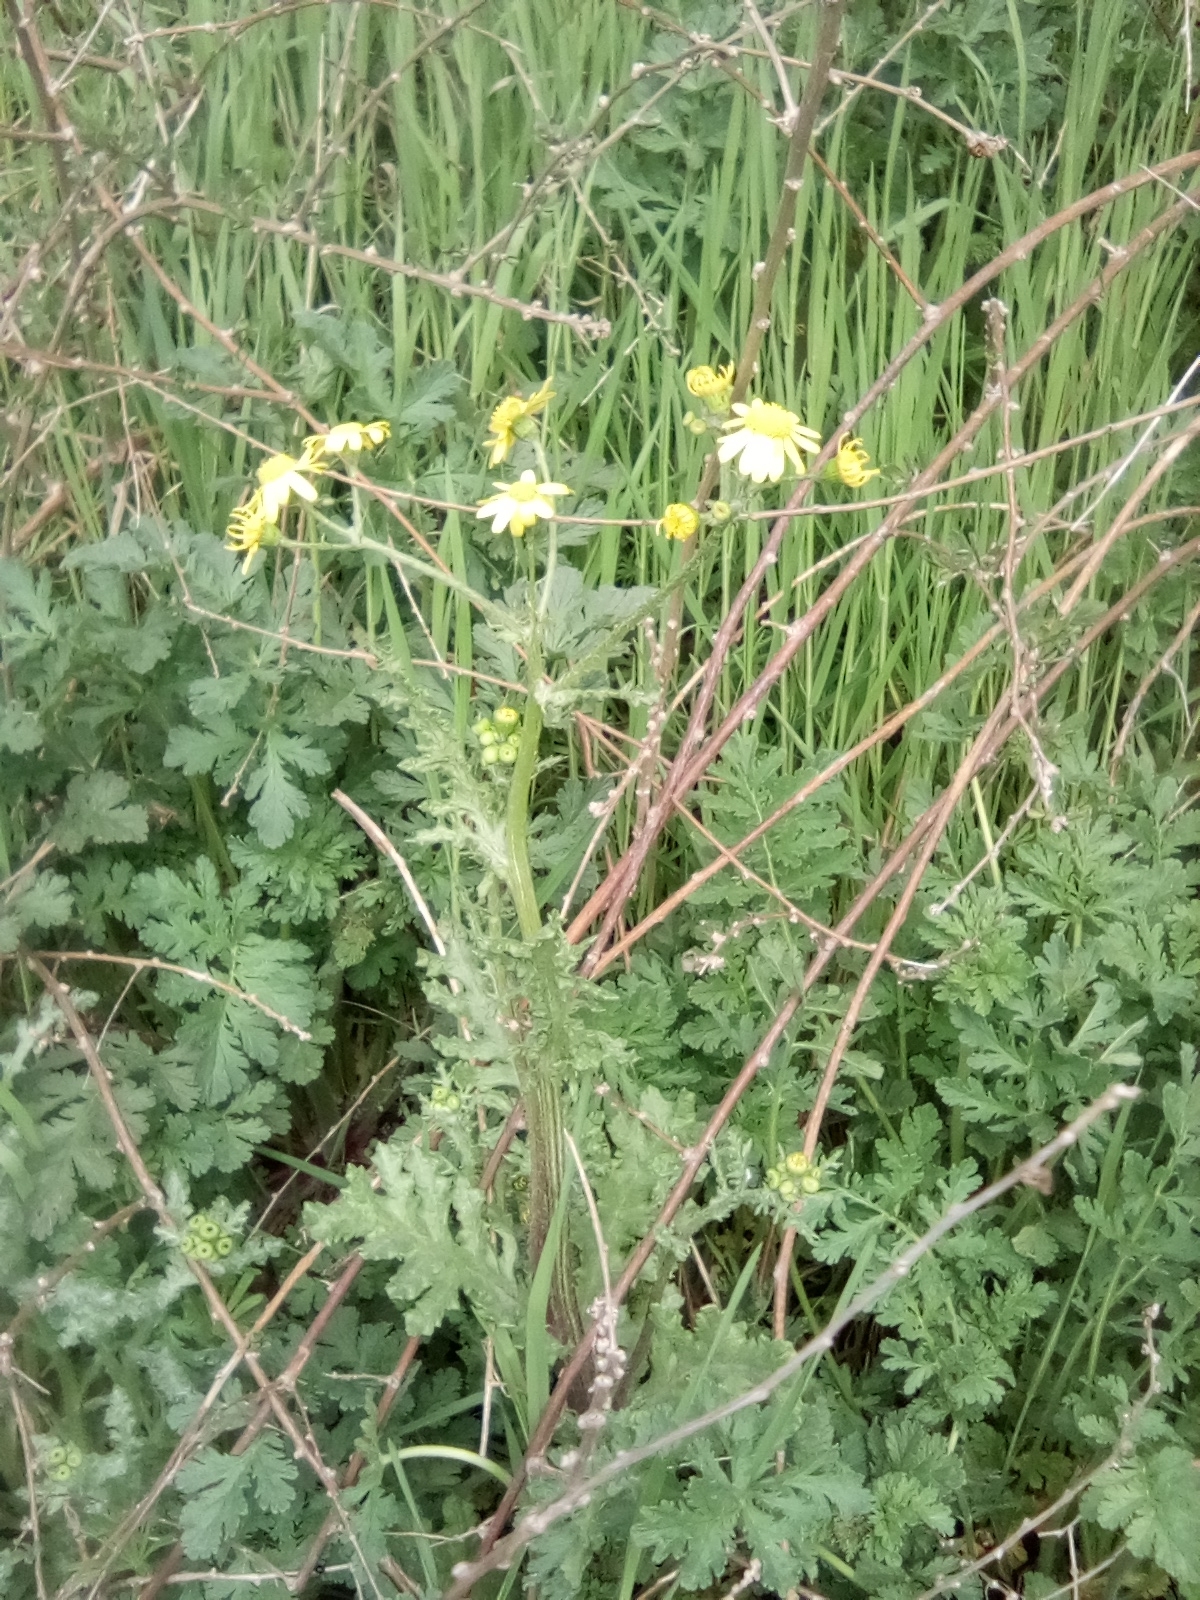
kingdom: Plantae
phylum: Tracheophyta
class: Magnoliopsida
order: Asterales
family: Asteraceae
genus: Senecio
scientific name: Senecio vernalis
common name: Eastern groundsel
